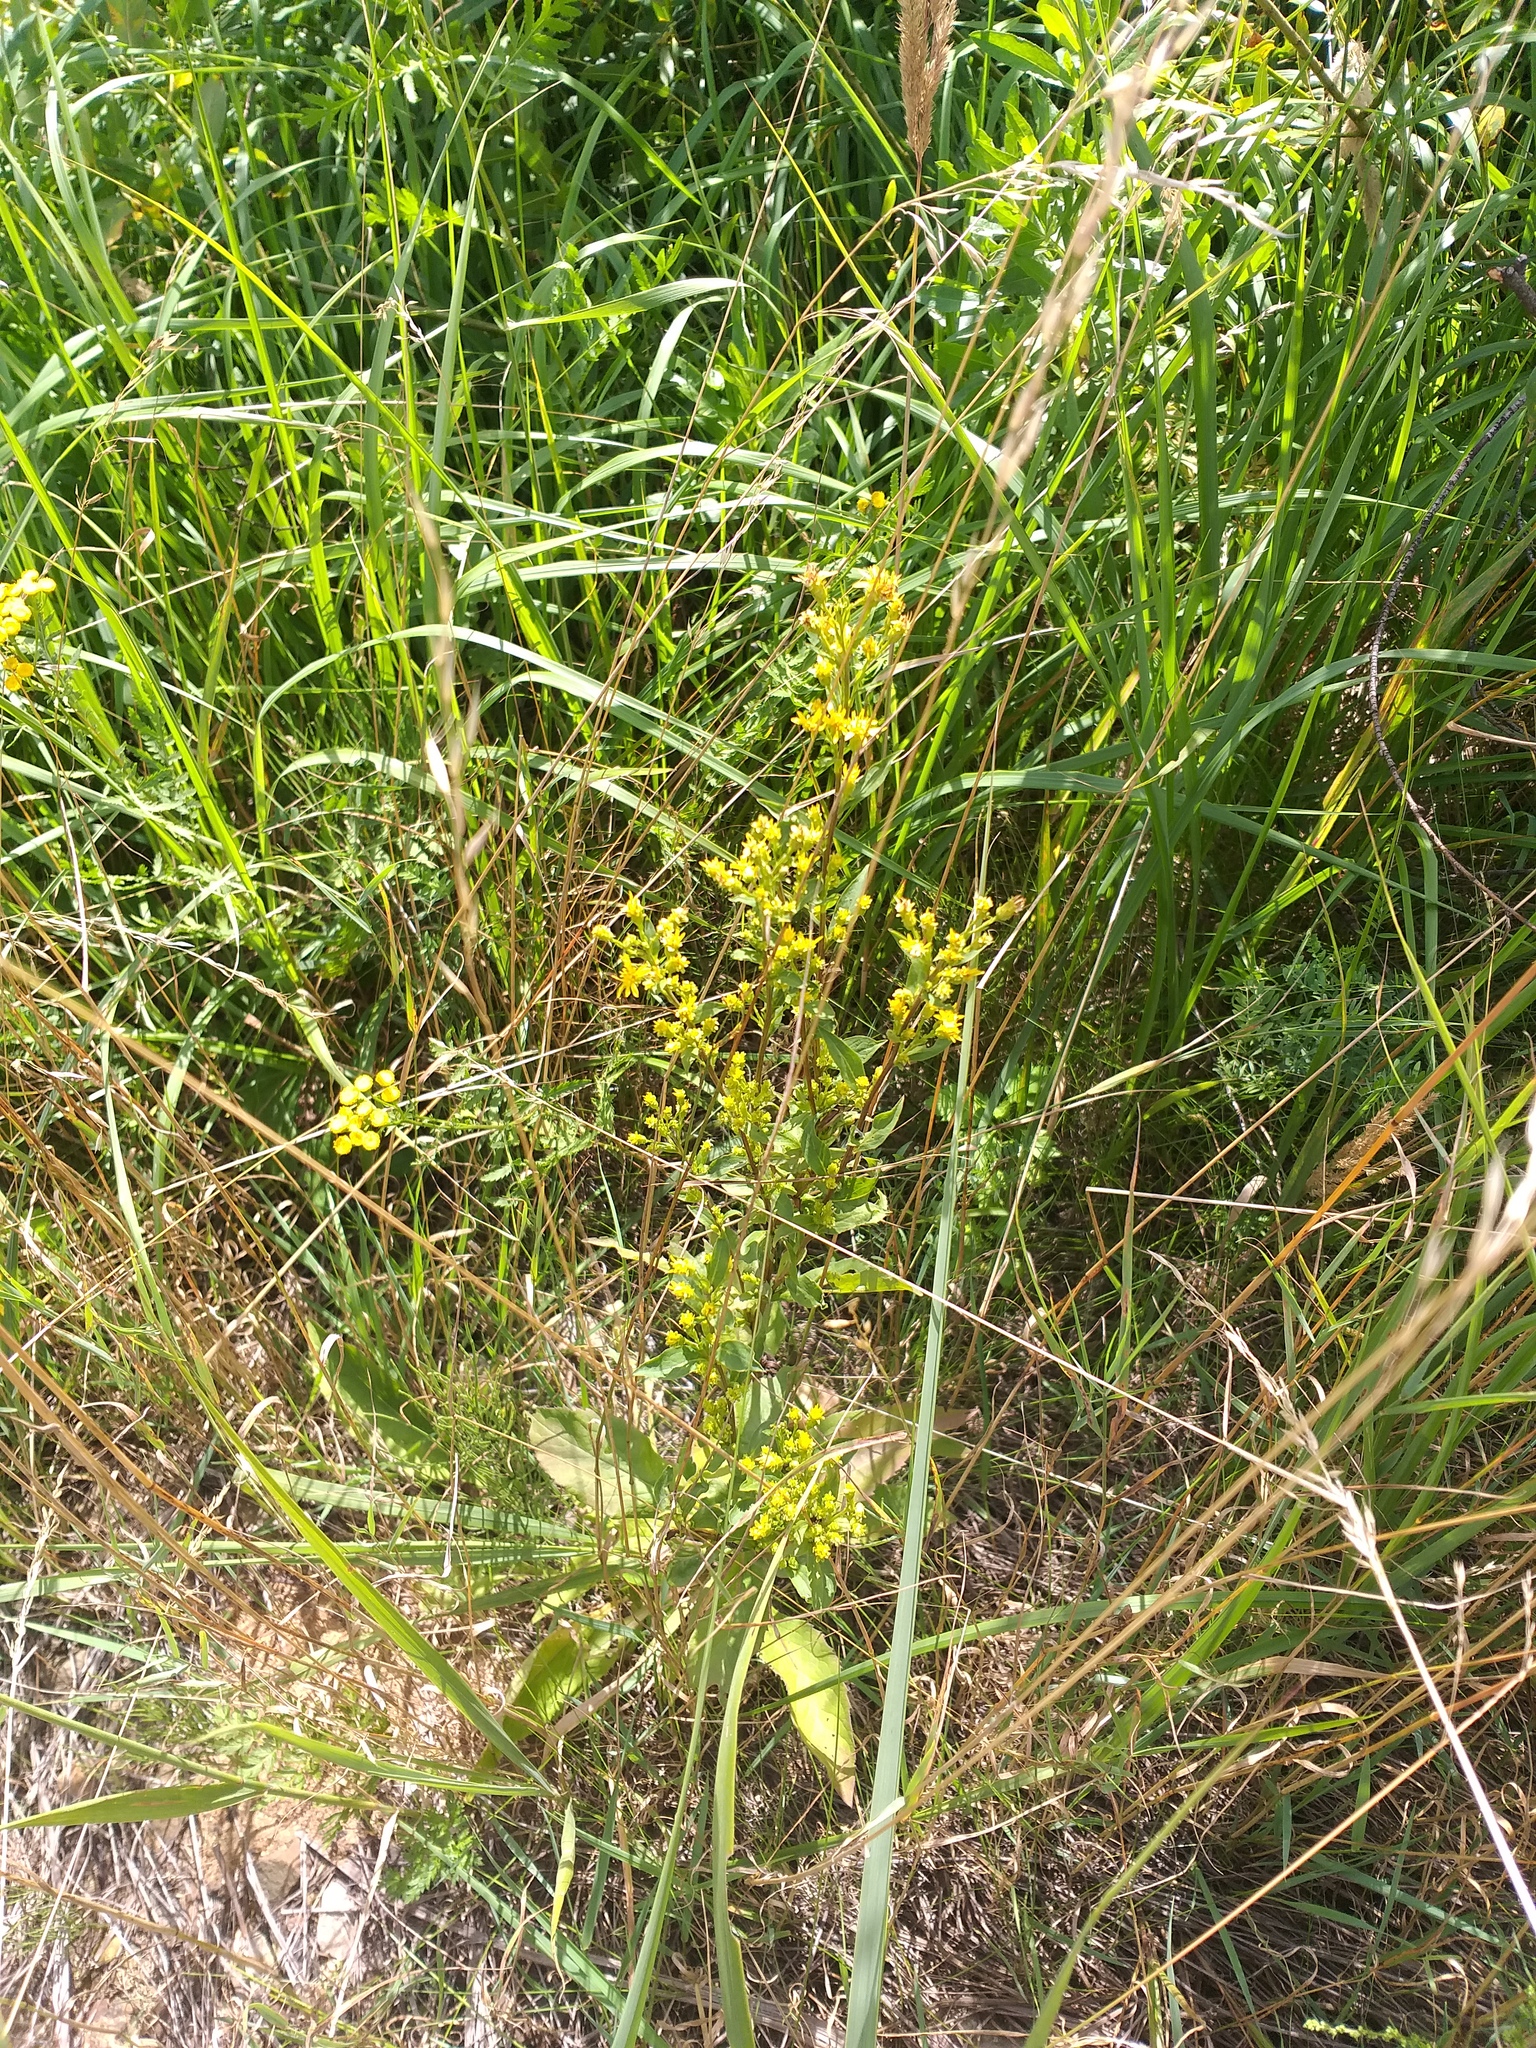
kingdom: Plantae
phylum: Tracheophyta
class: Magnoliopsida
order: Asterales
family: Asteraceae
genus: Solidago
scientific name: Solidago virgaurea
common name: Goldenrod
